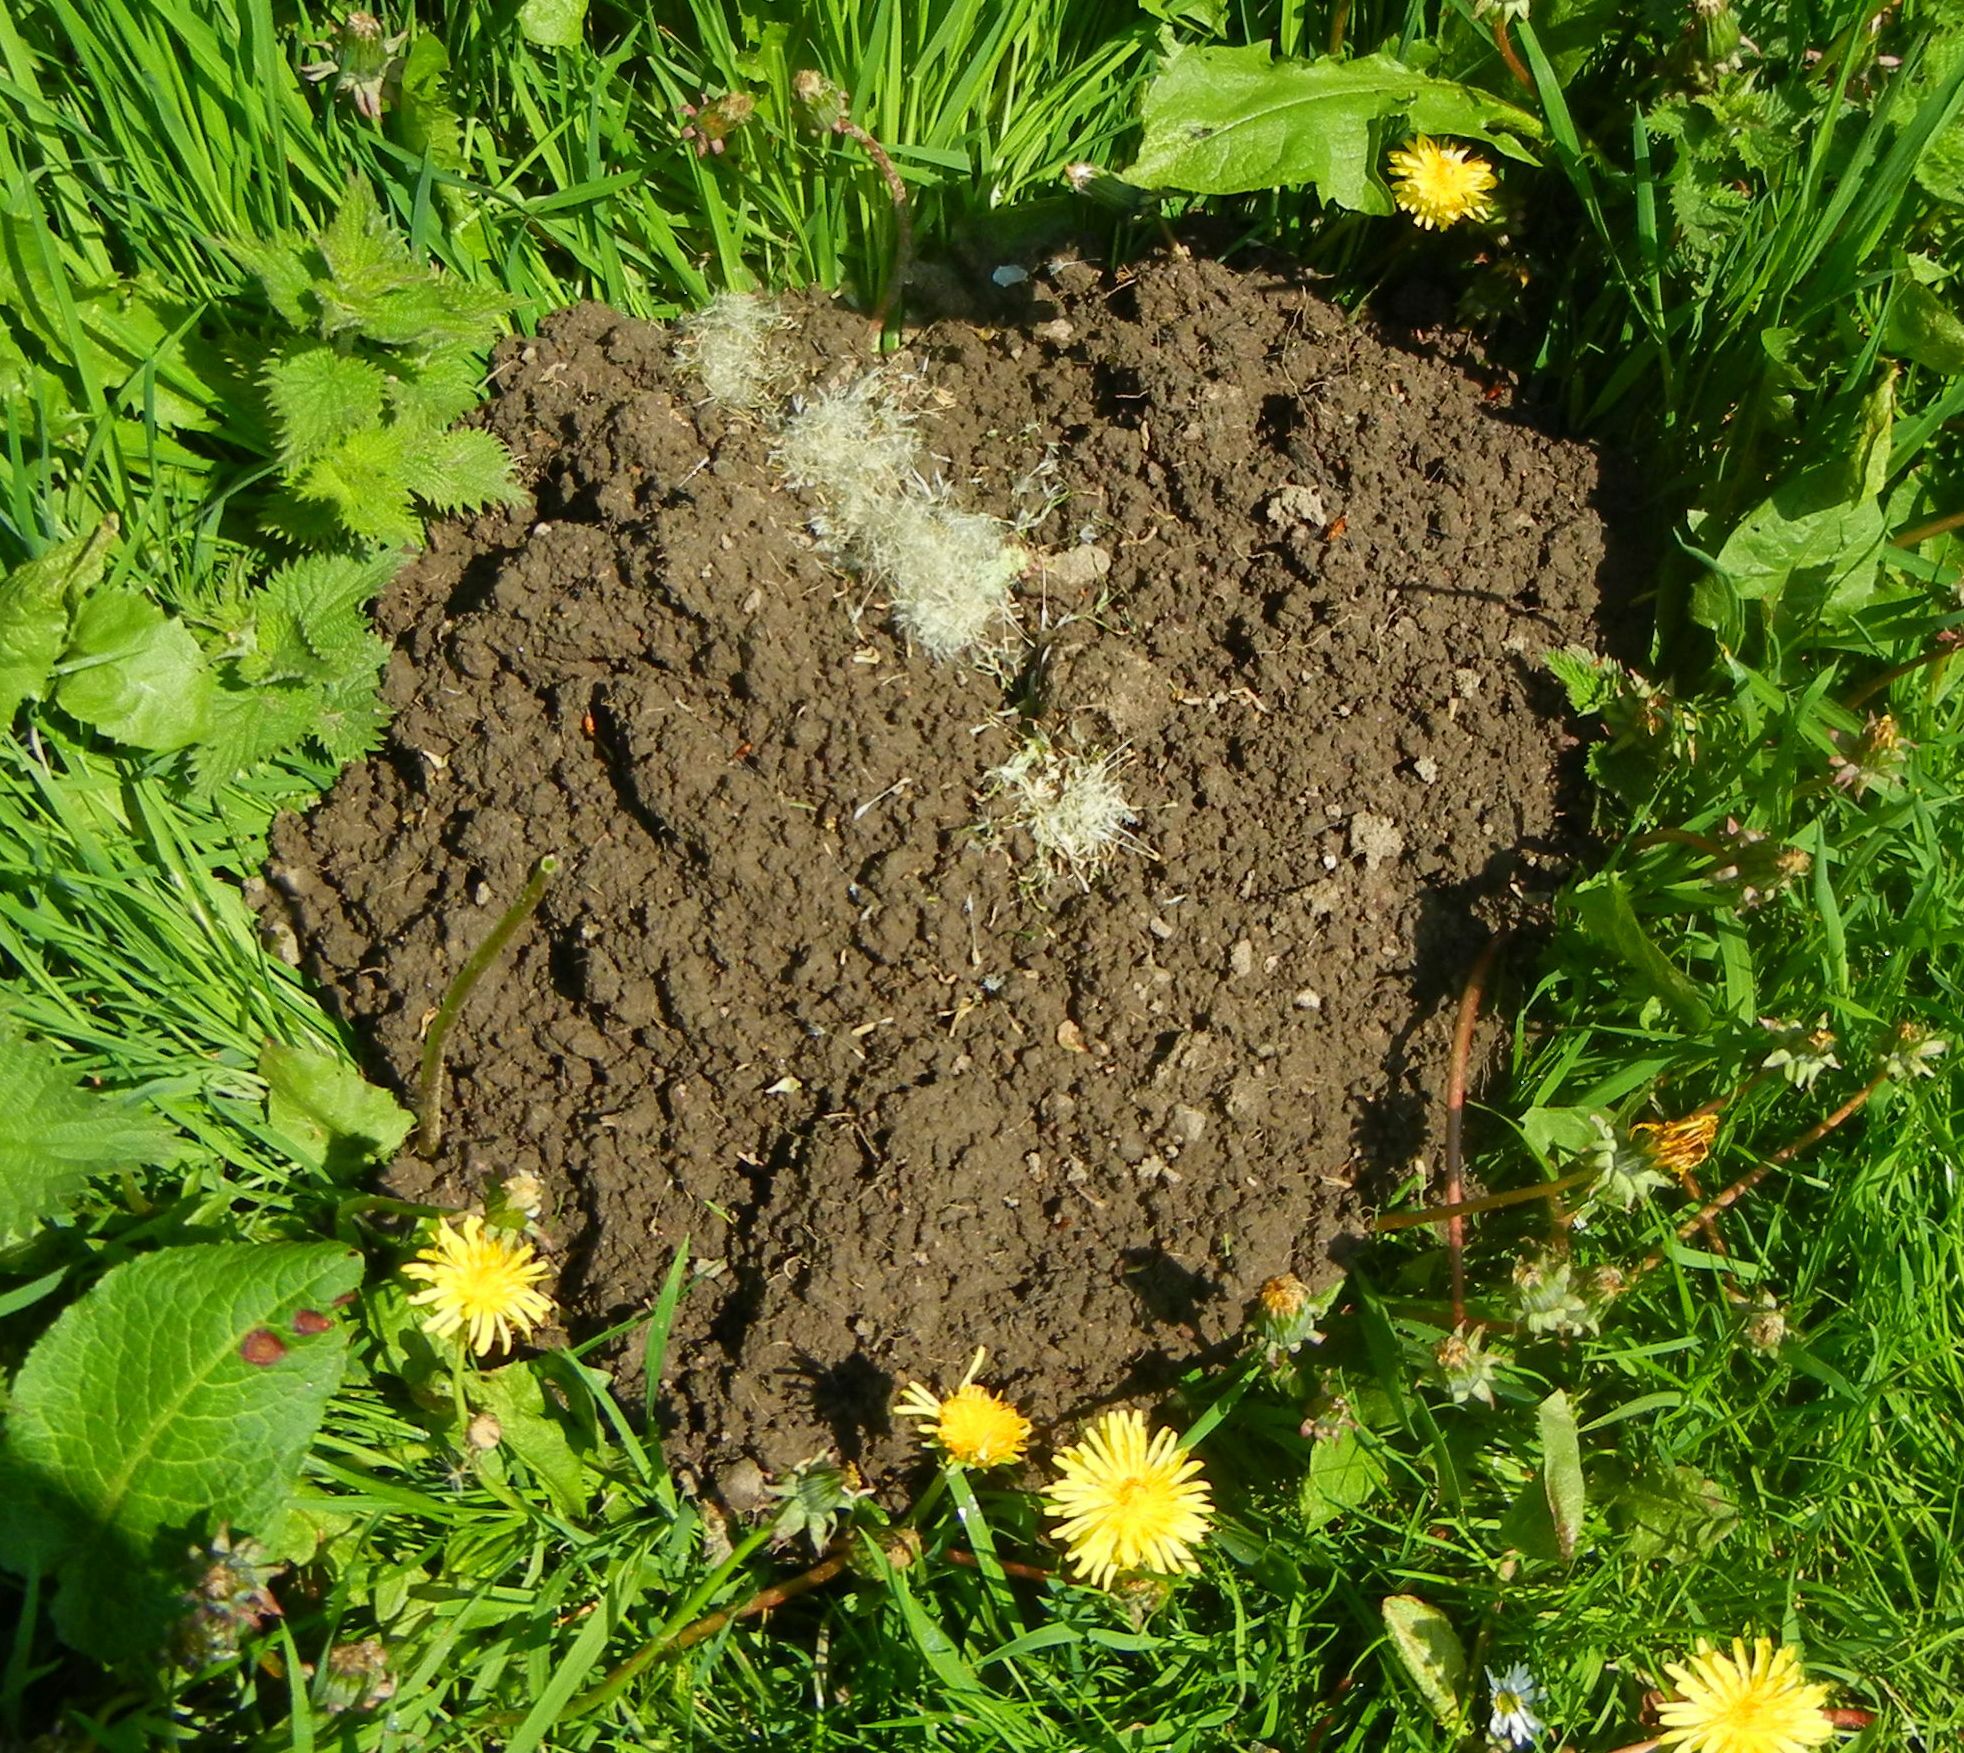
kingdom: Animalia
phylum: Chordata
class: Mammalia
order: Soricomorpha
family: Talpidae
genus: Talpa
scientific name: Talpa europaea
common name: European mole
